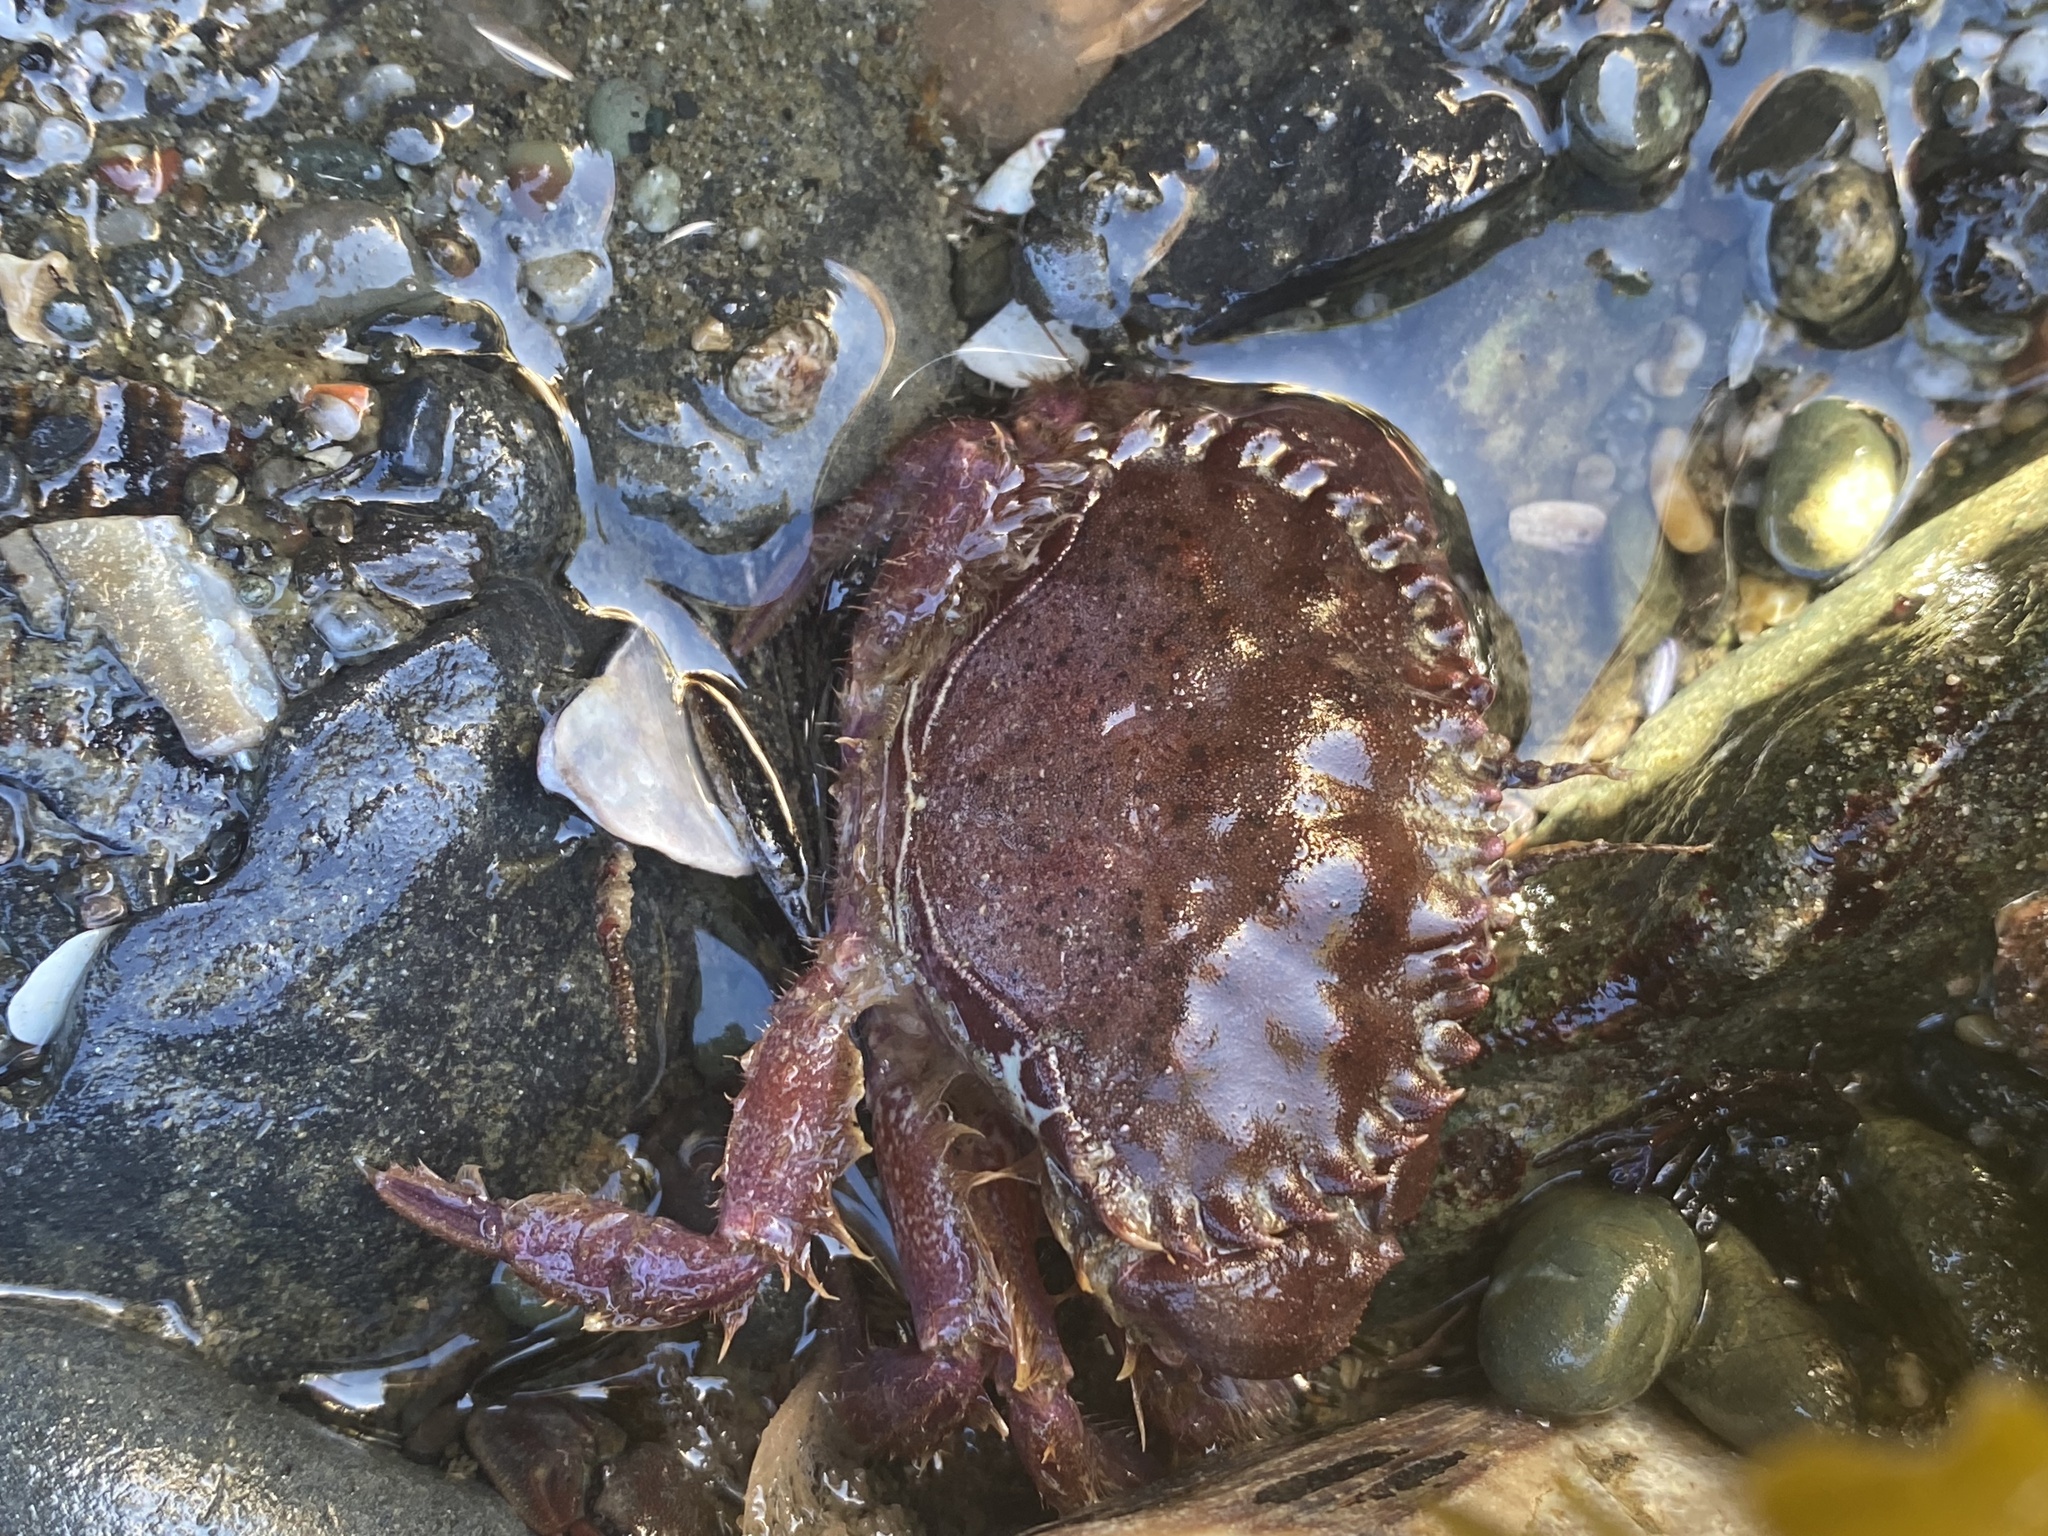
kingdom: Animalia
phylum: Arthropoda
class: Malacostraca
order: Decapoda
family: Cancridae
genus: Romaleon
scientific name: Romaleon antennarium
